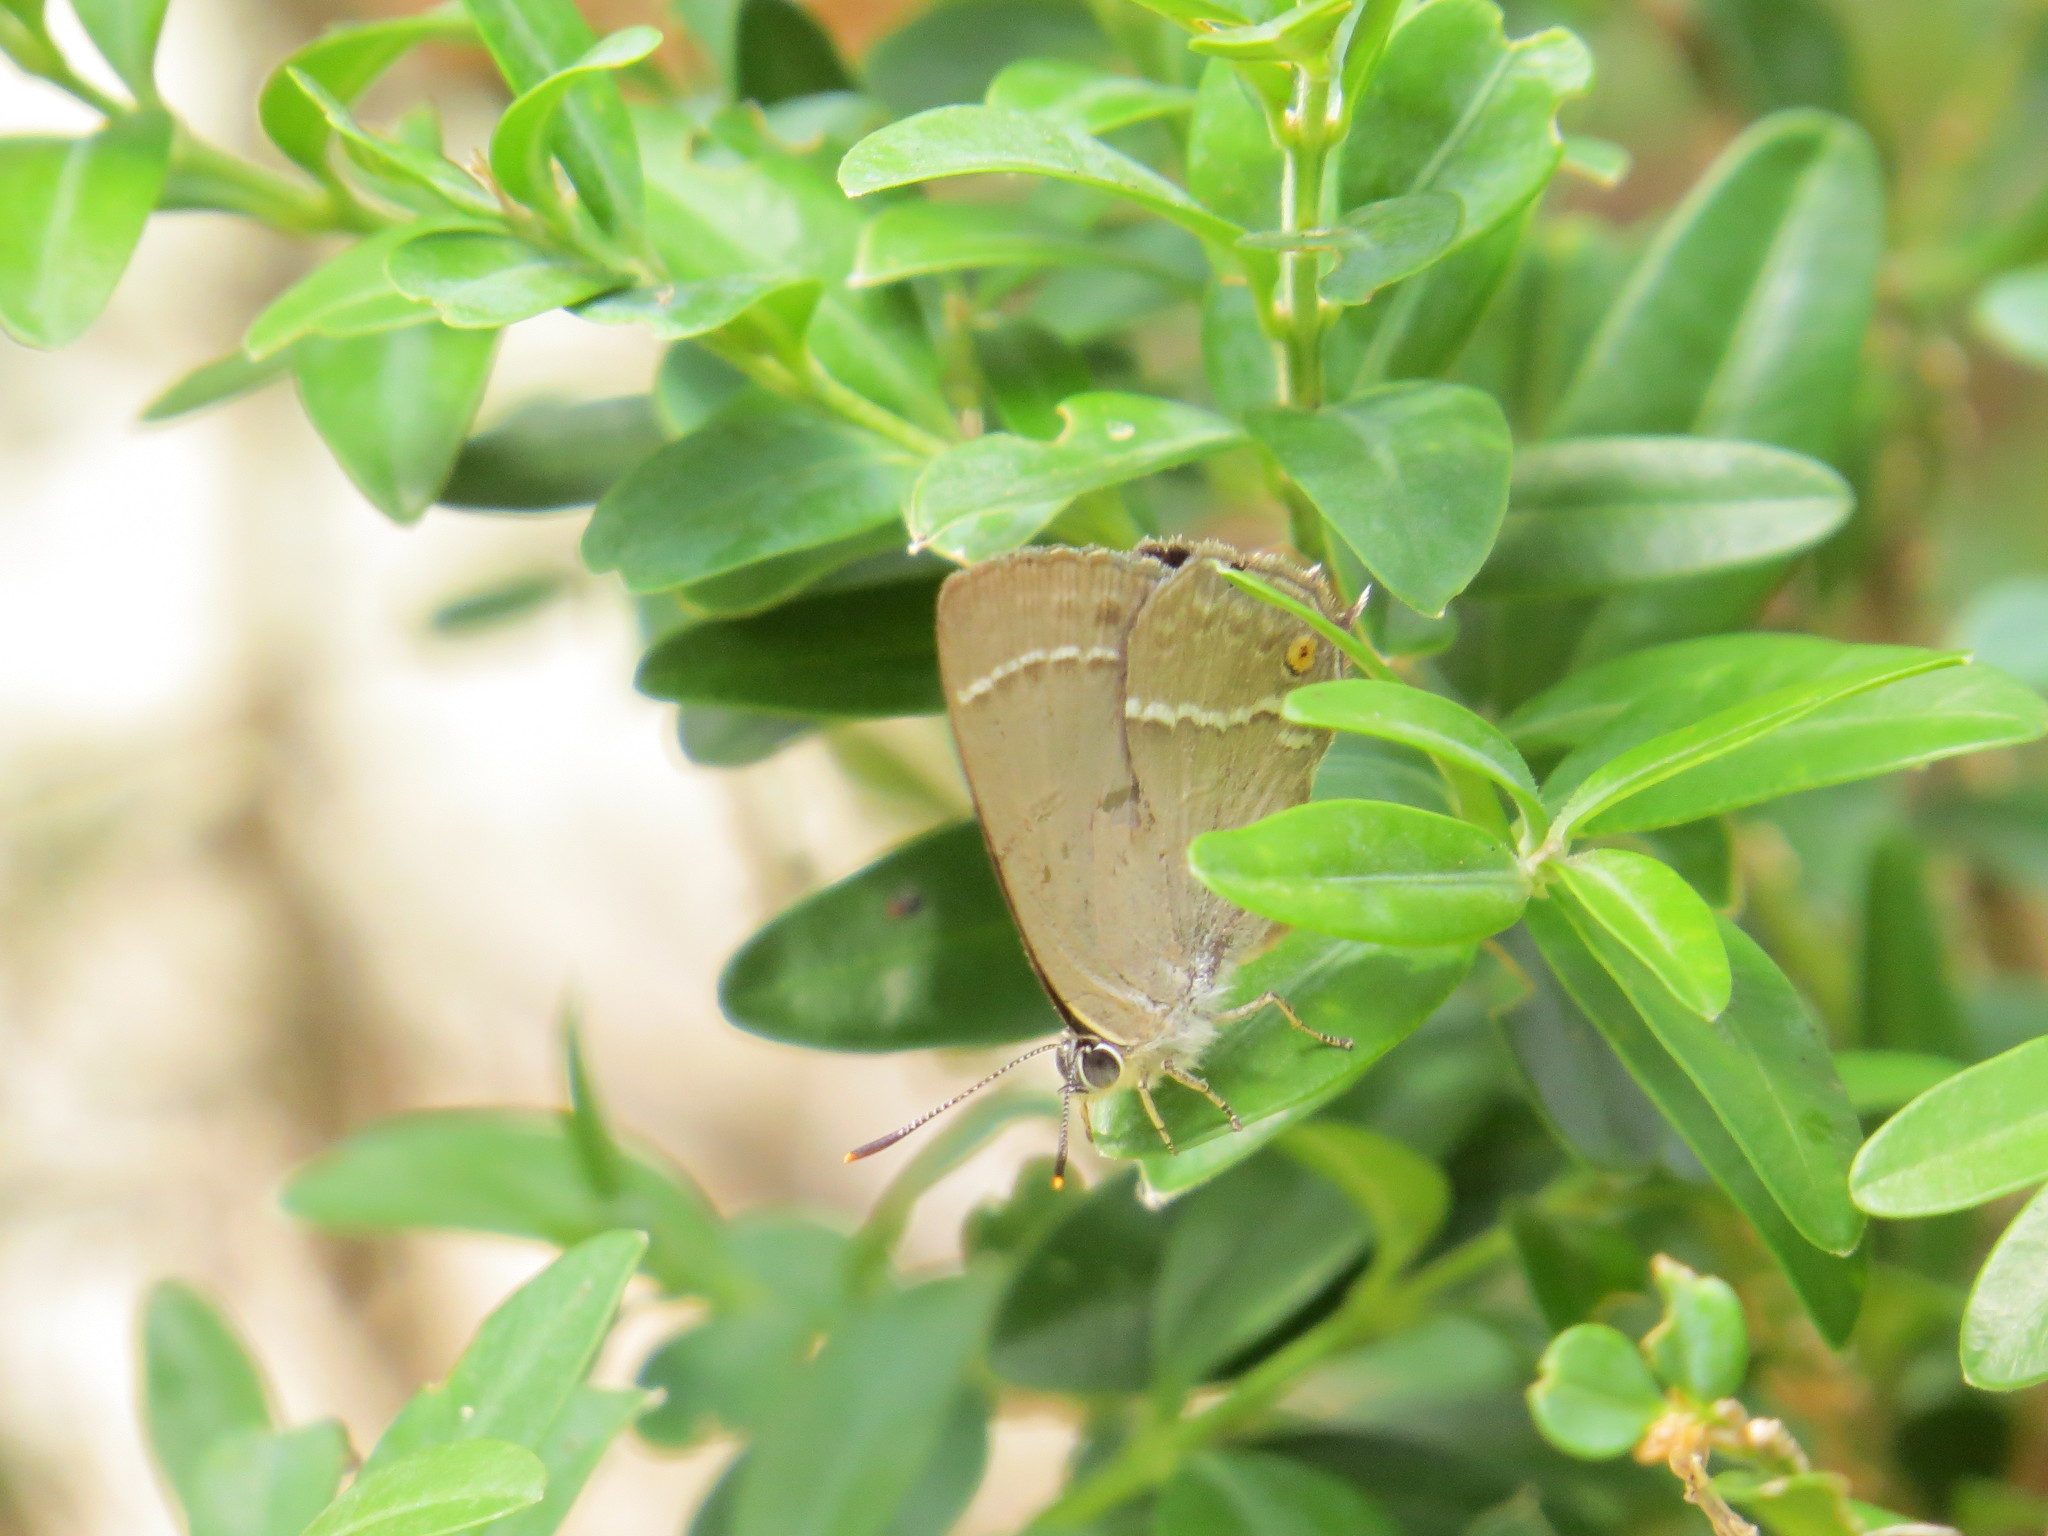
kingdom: Animalia
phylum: Arthropoda
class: Insecta
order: Lepidoptera
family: Lycaenidae
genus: Quercusia
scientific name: Quercusia quercus
